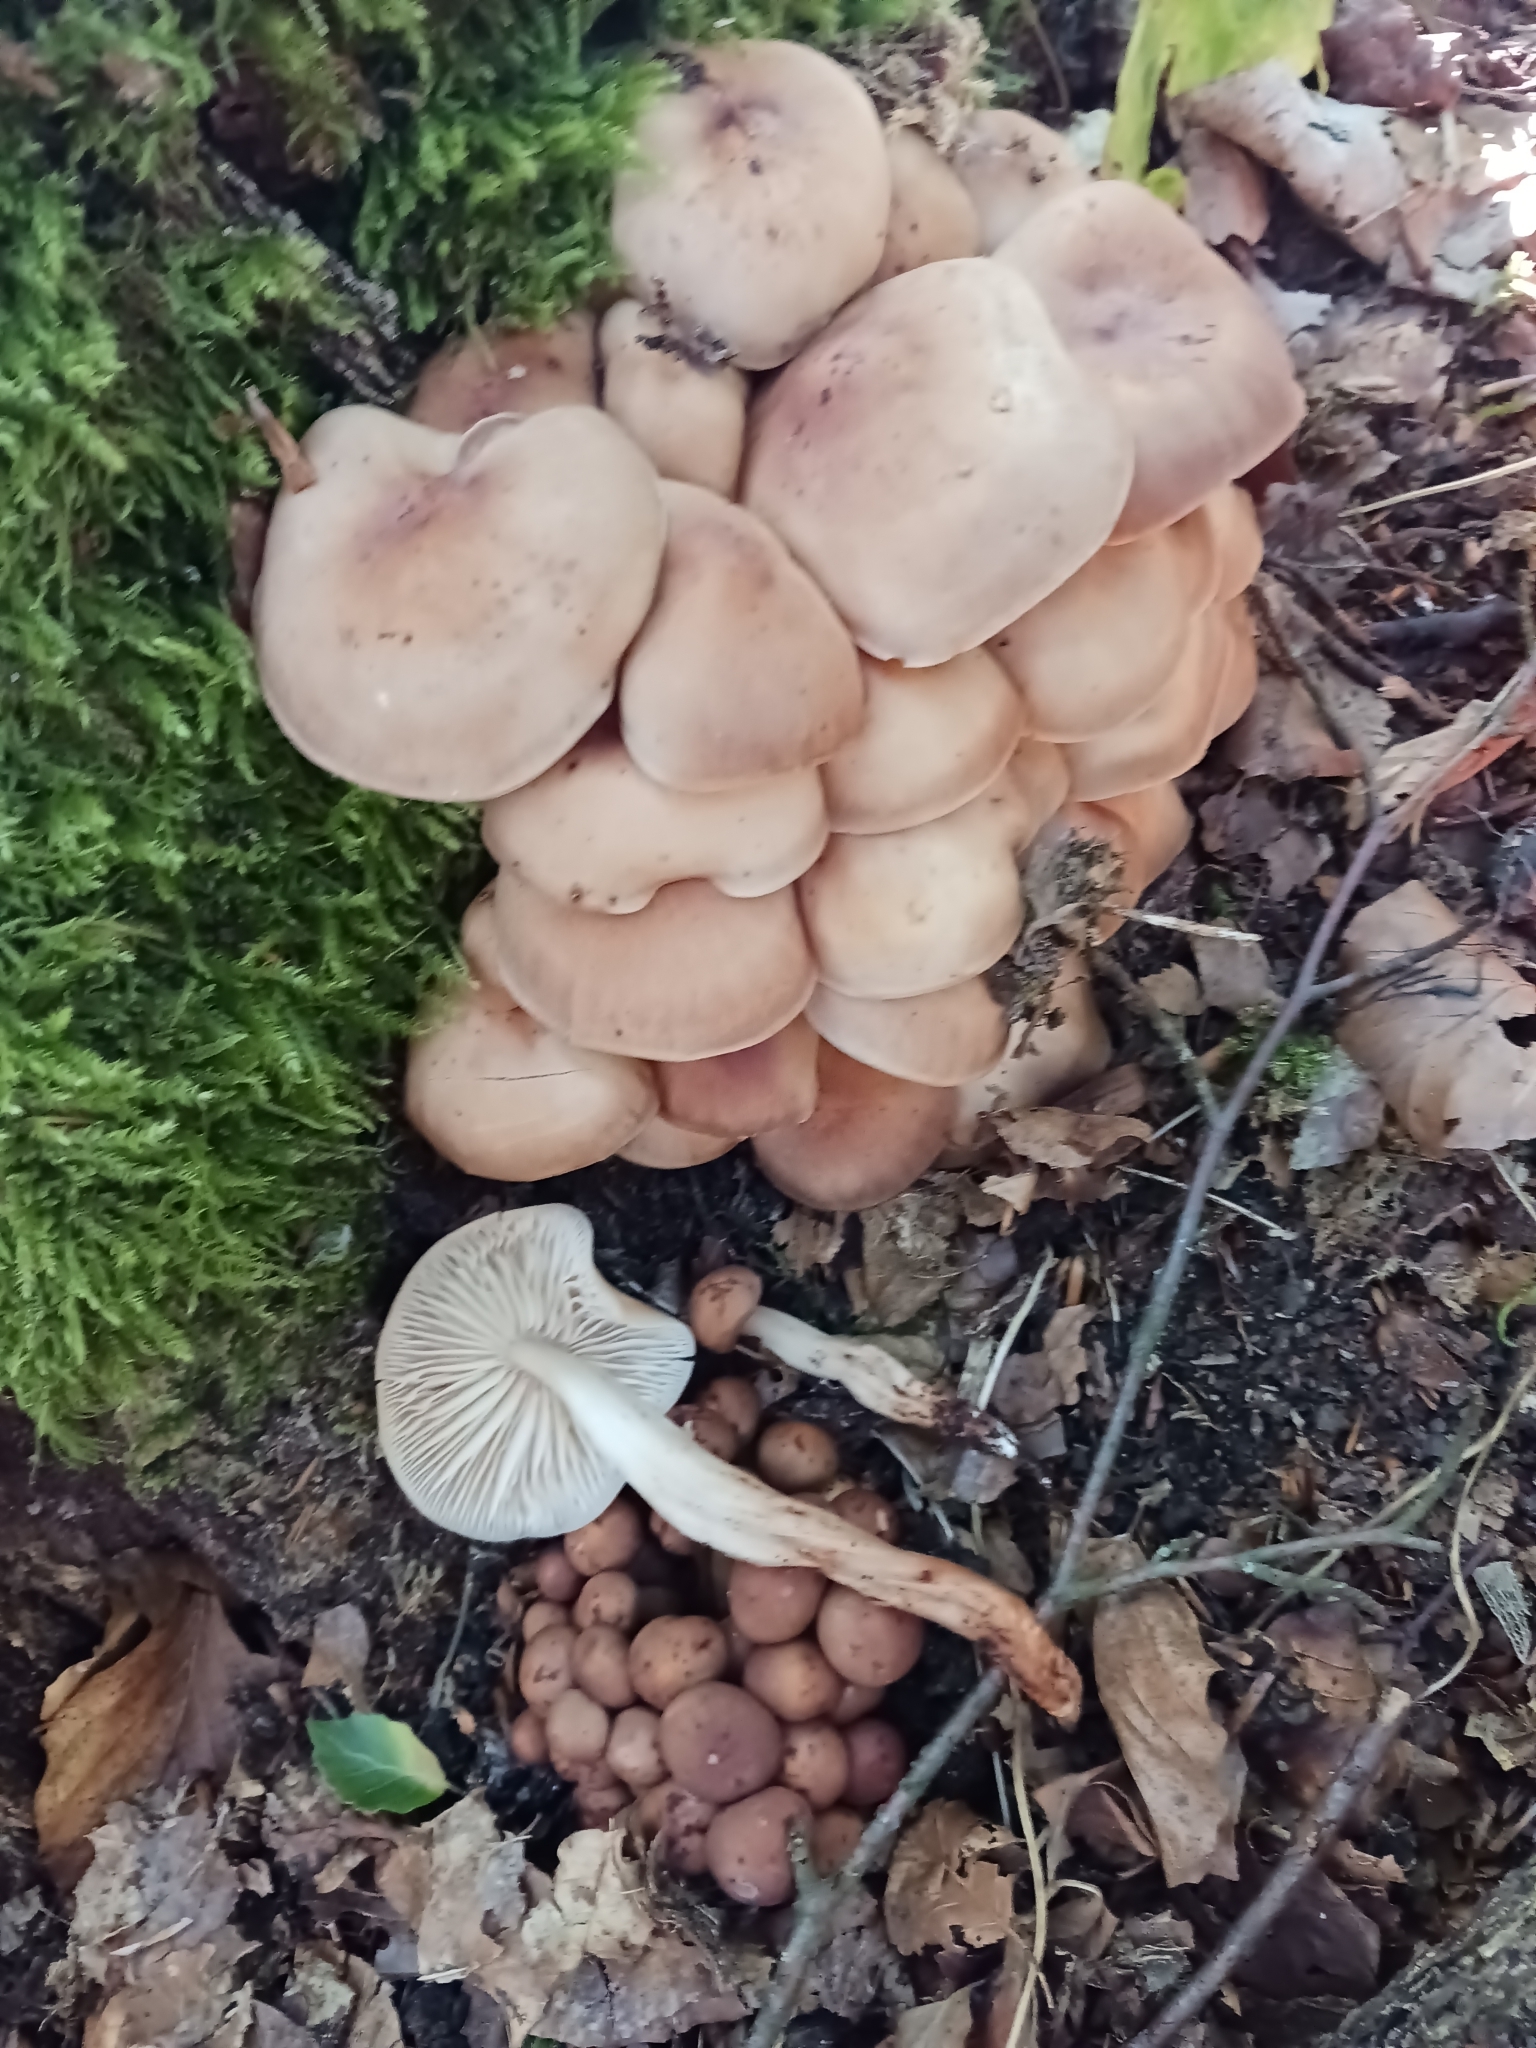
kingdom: Fungi
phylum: Basidiomycota
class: Agaricomycetes
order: Agaricales
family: Omphalotaceae
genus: Gymnopus
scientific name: Gymnopus fusipes
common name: Spindle shank
